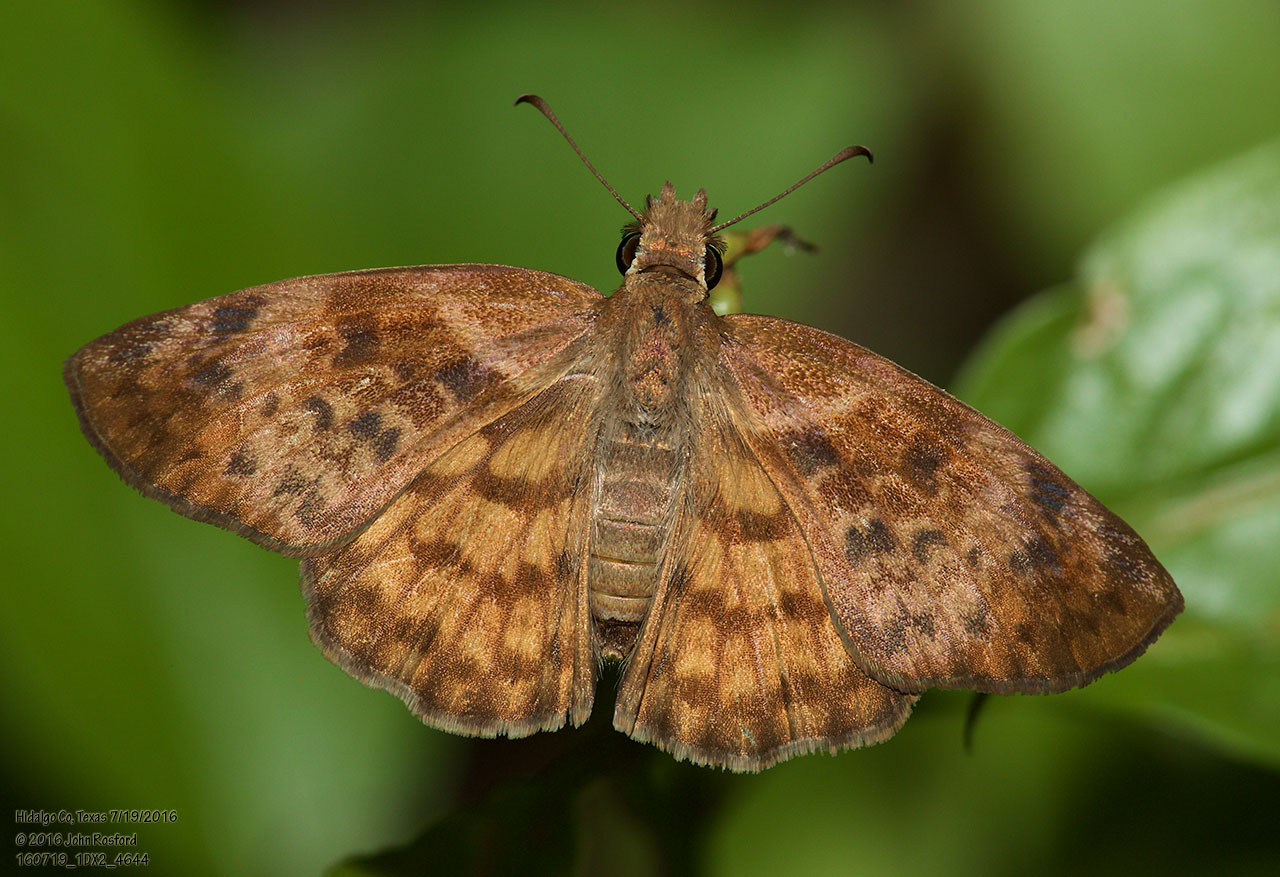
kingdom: Animalia
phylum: Arthropoda
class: Insecta
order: Lepidoptera
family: Hesperiidae
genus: Timochares
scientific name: Timochares ruptifasciata
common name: Brown-banded skipper
